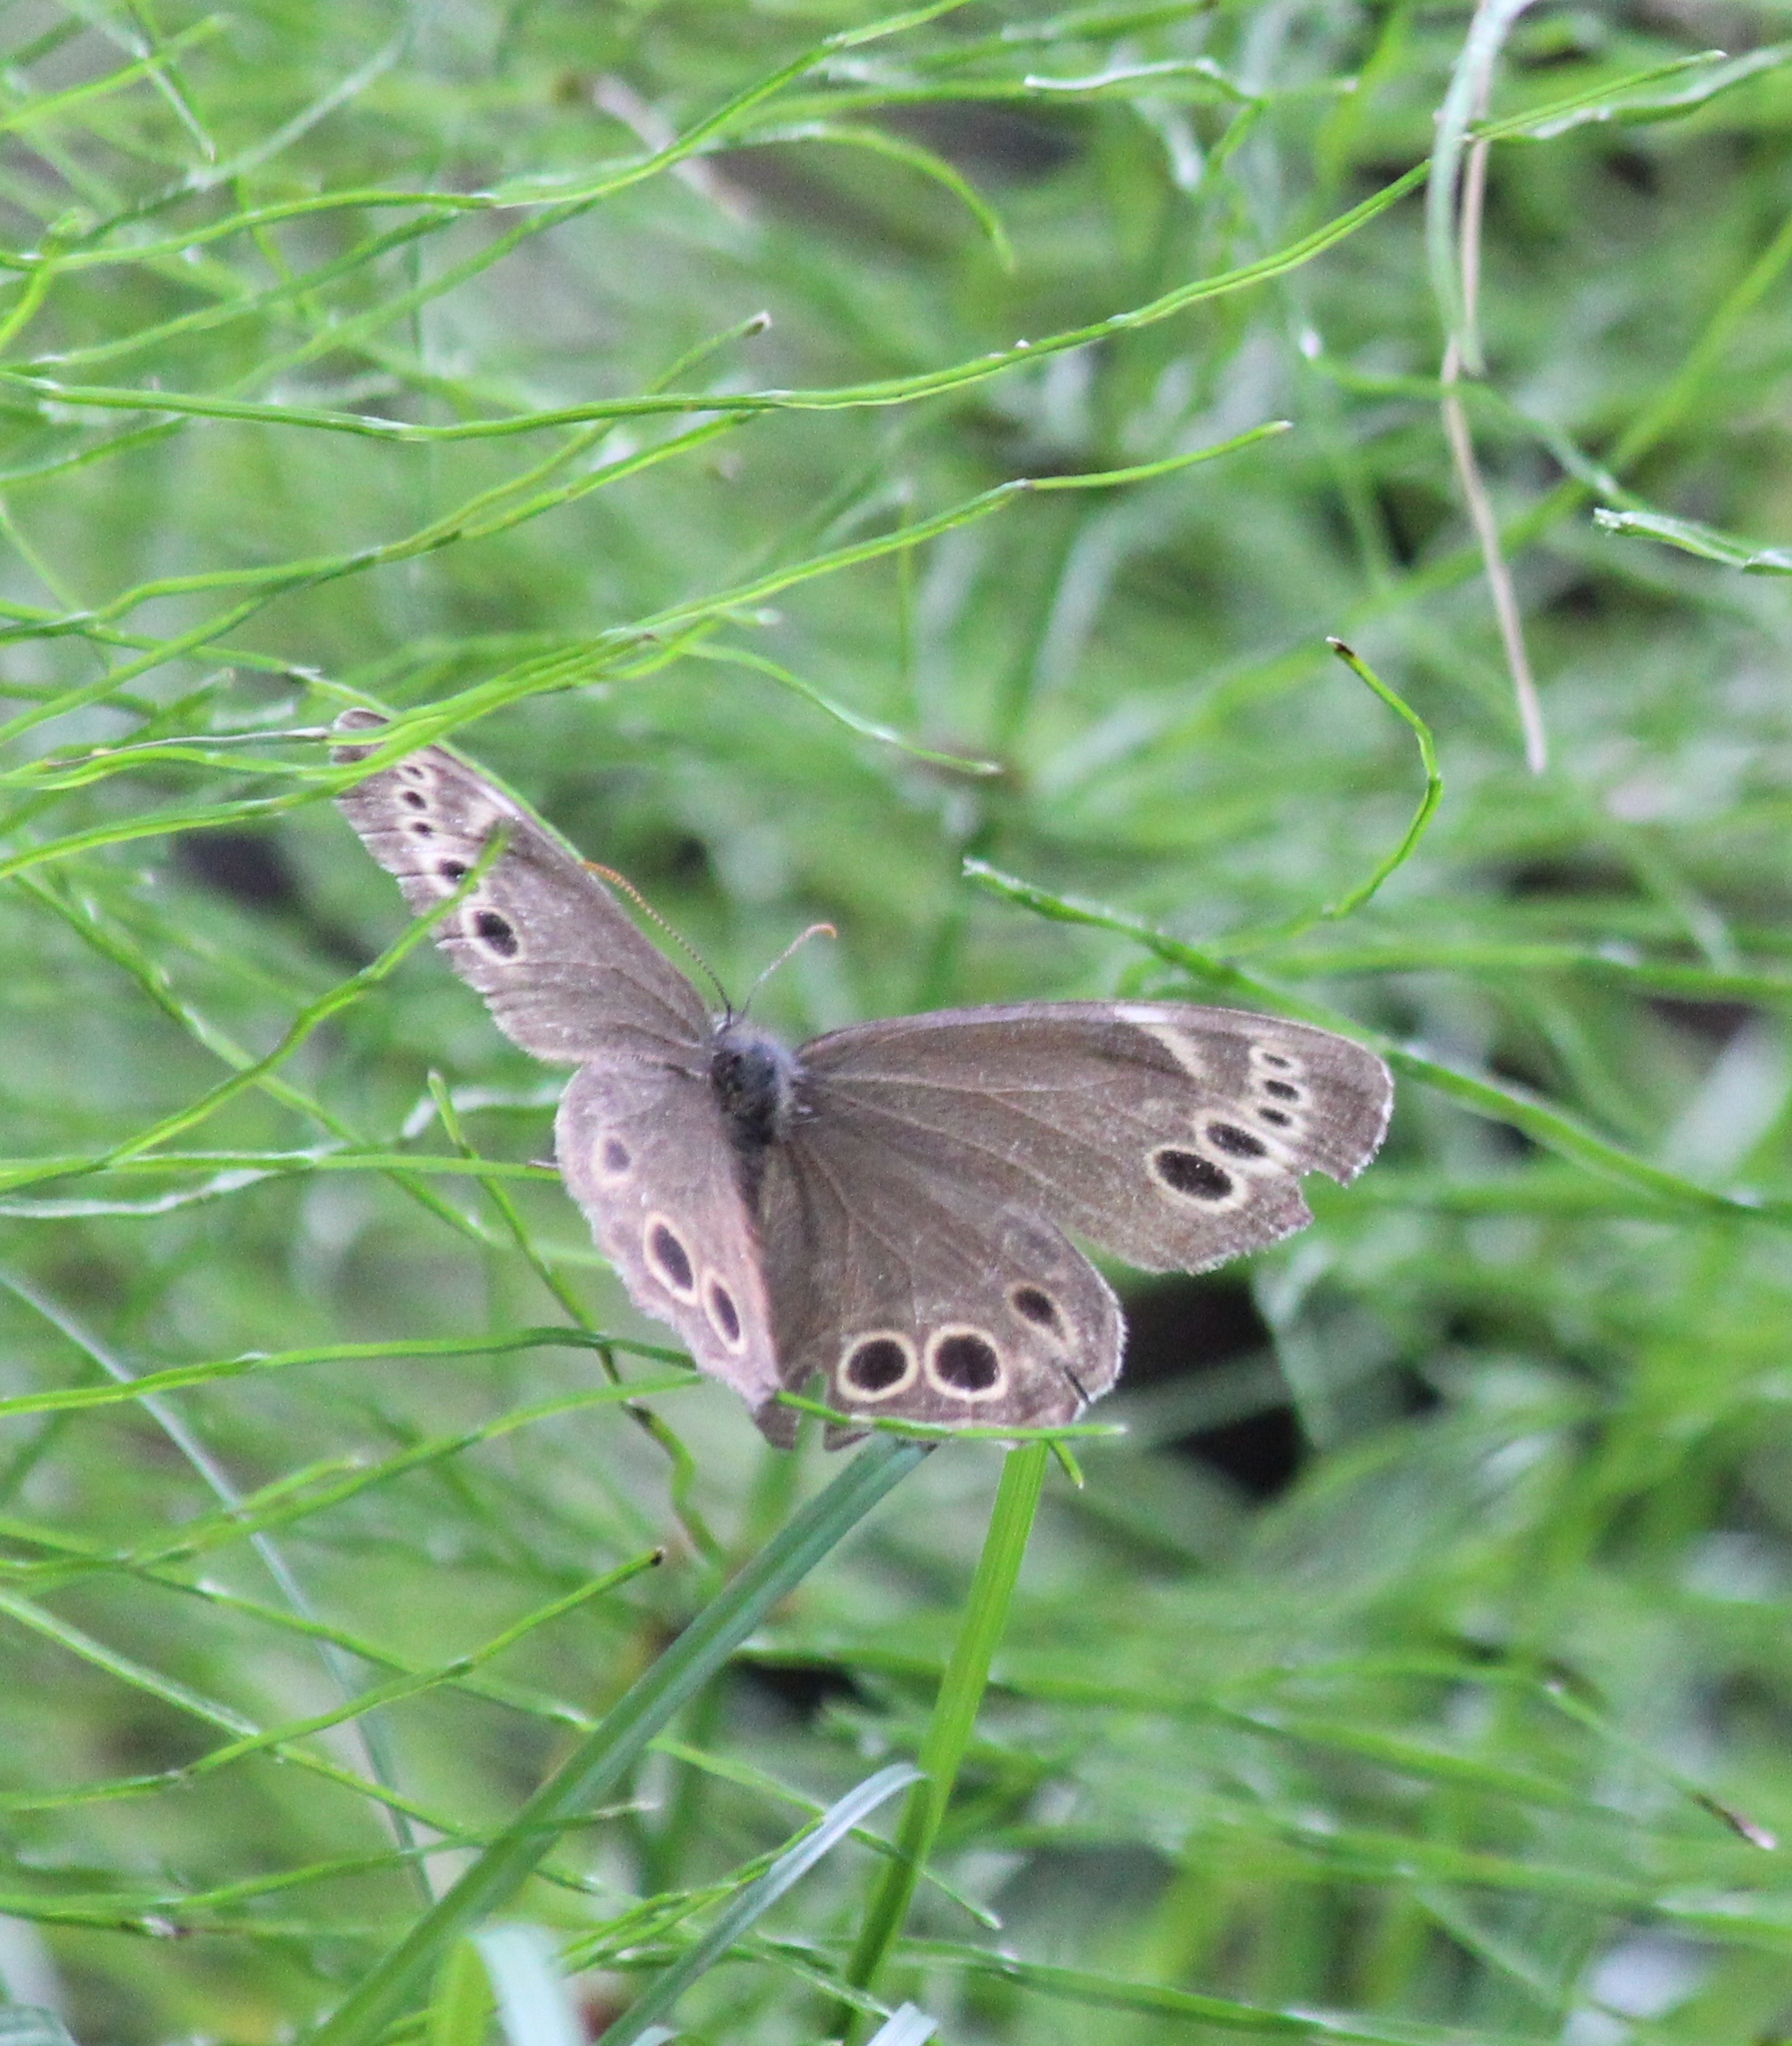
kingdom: Animalia
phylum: Arthropoda
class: Insecta
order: Lepidoptera
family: Nymphalidae
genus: Pararge
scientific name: Pararge Lopinga achine
